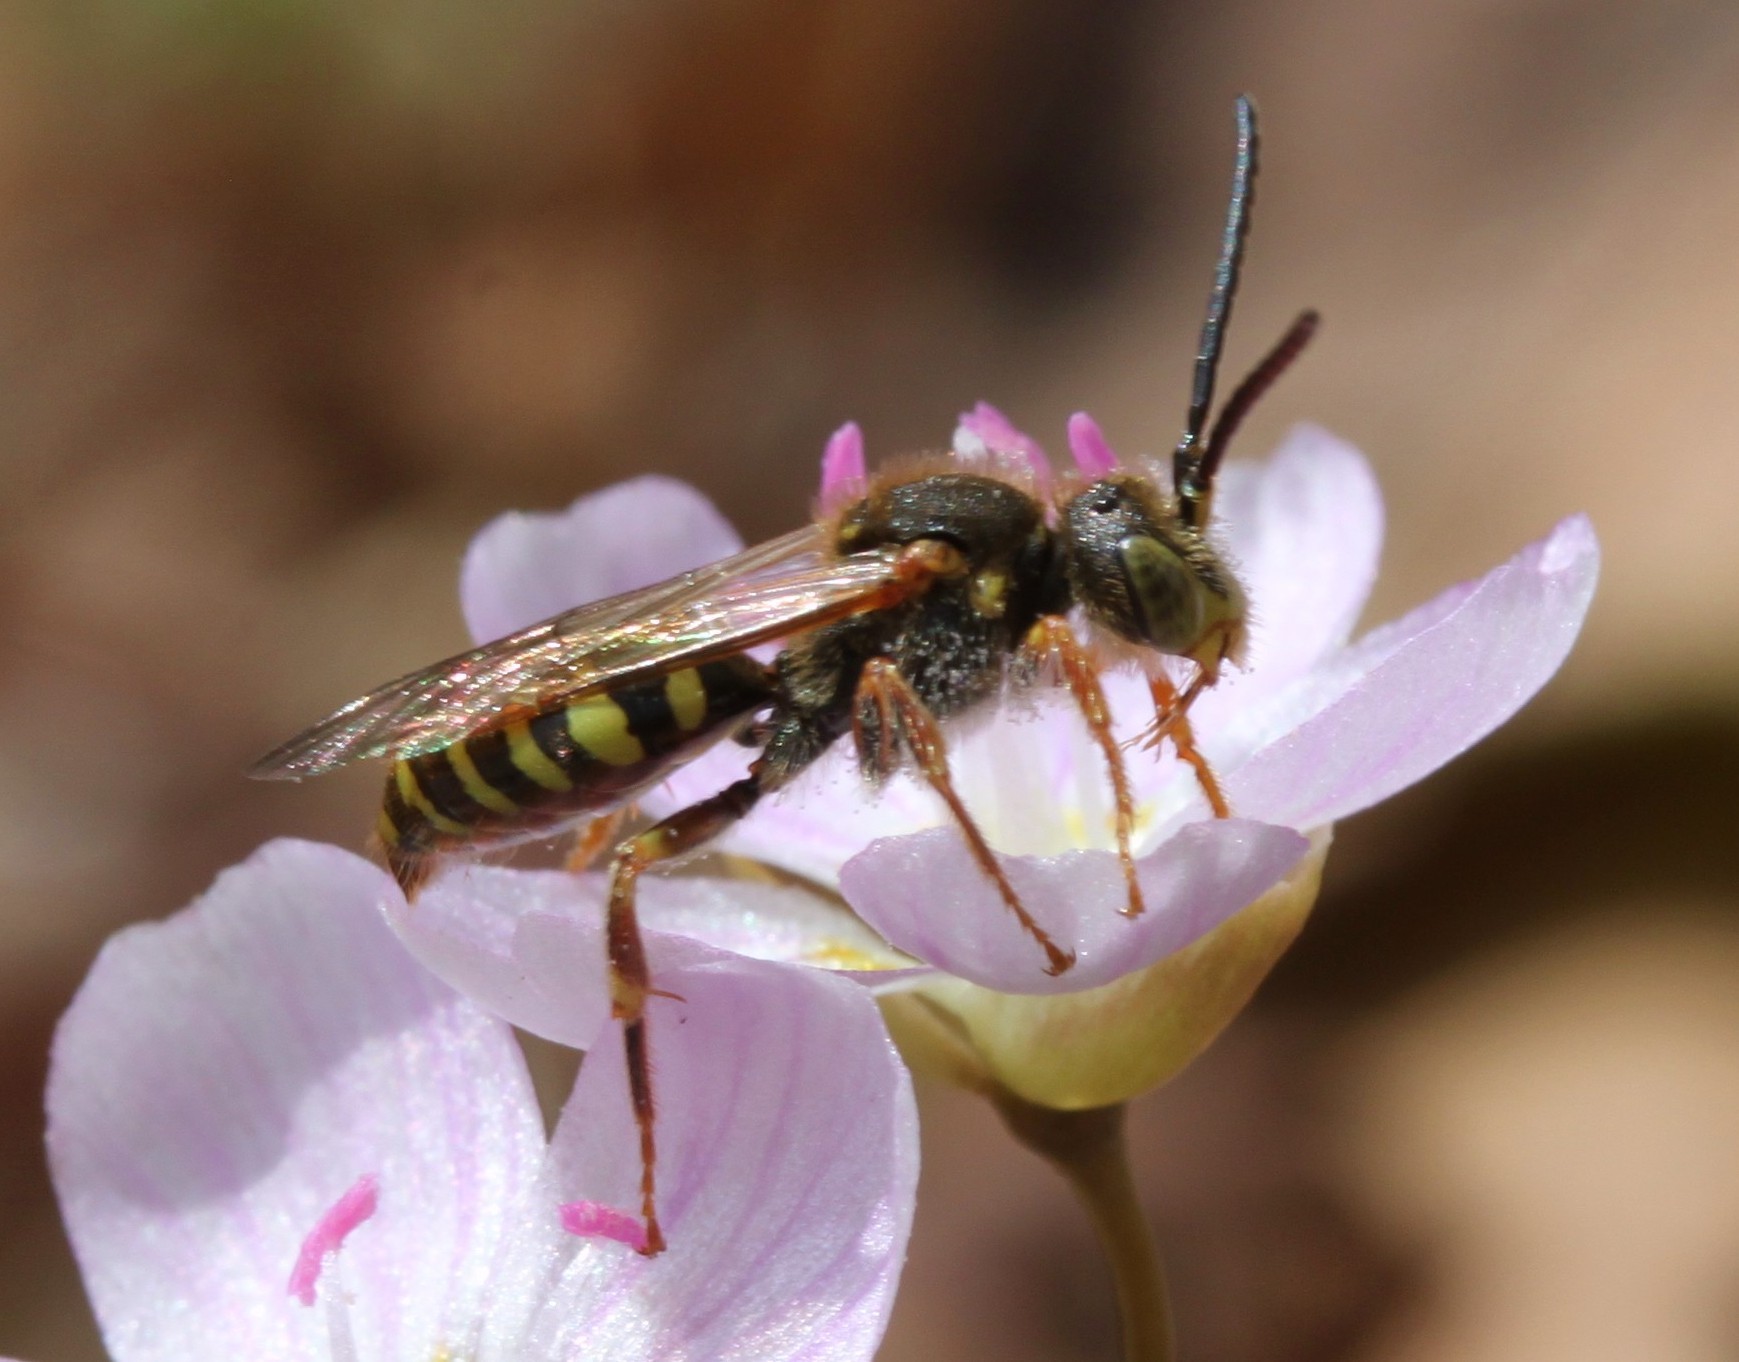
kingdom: Animalia
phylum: Arthropoda
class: Insecta
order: Hymenoptera
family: Apidae
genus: Nomada
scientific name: Nomada
